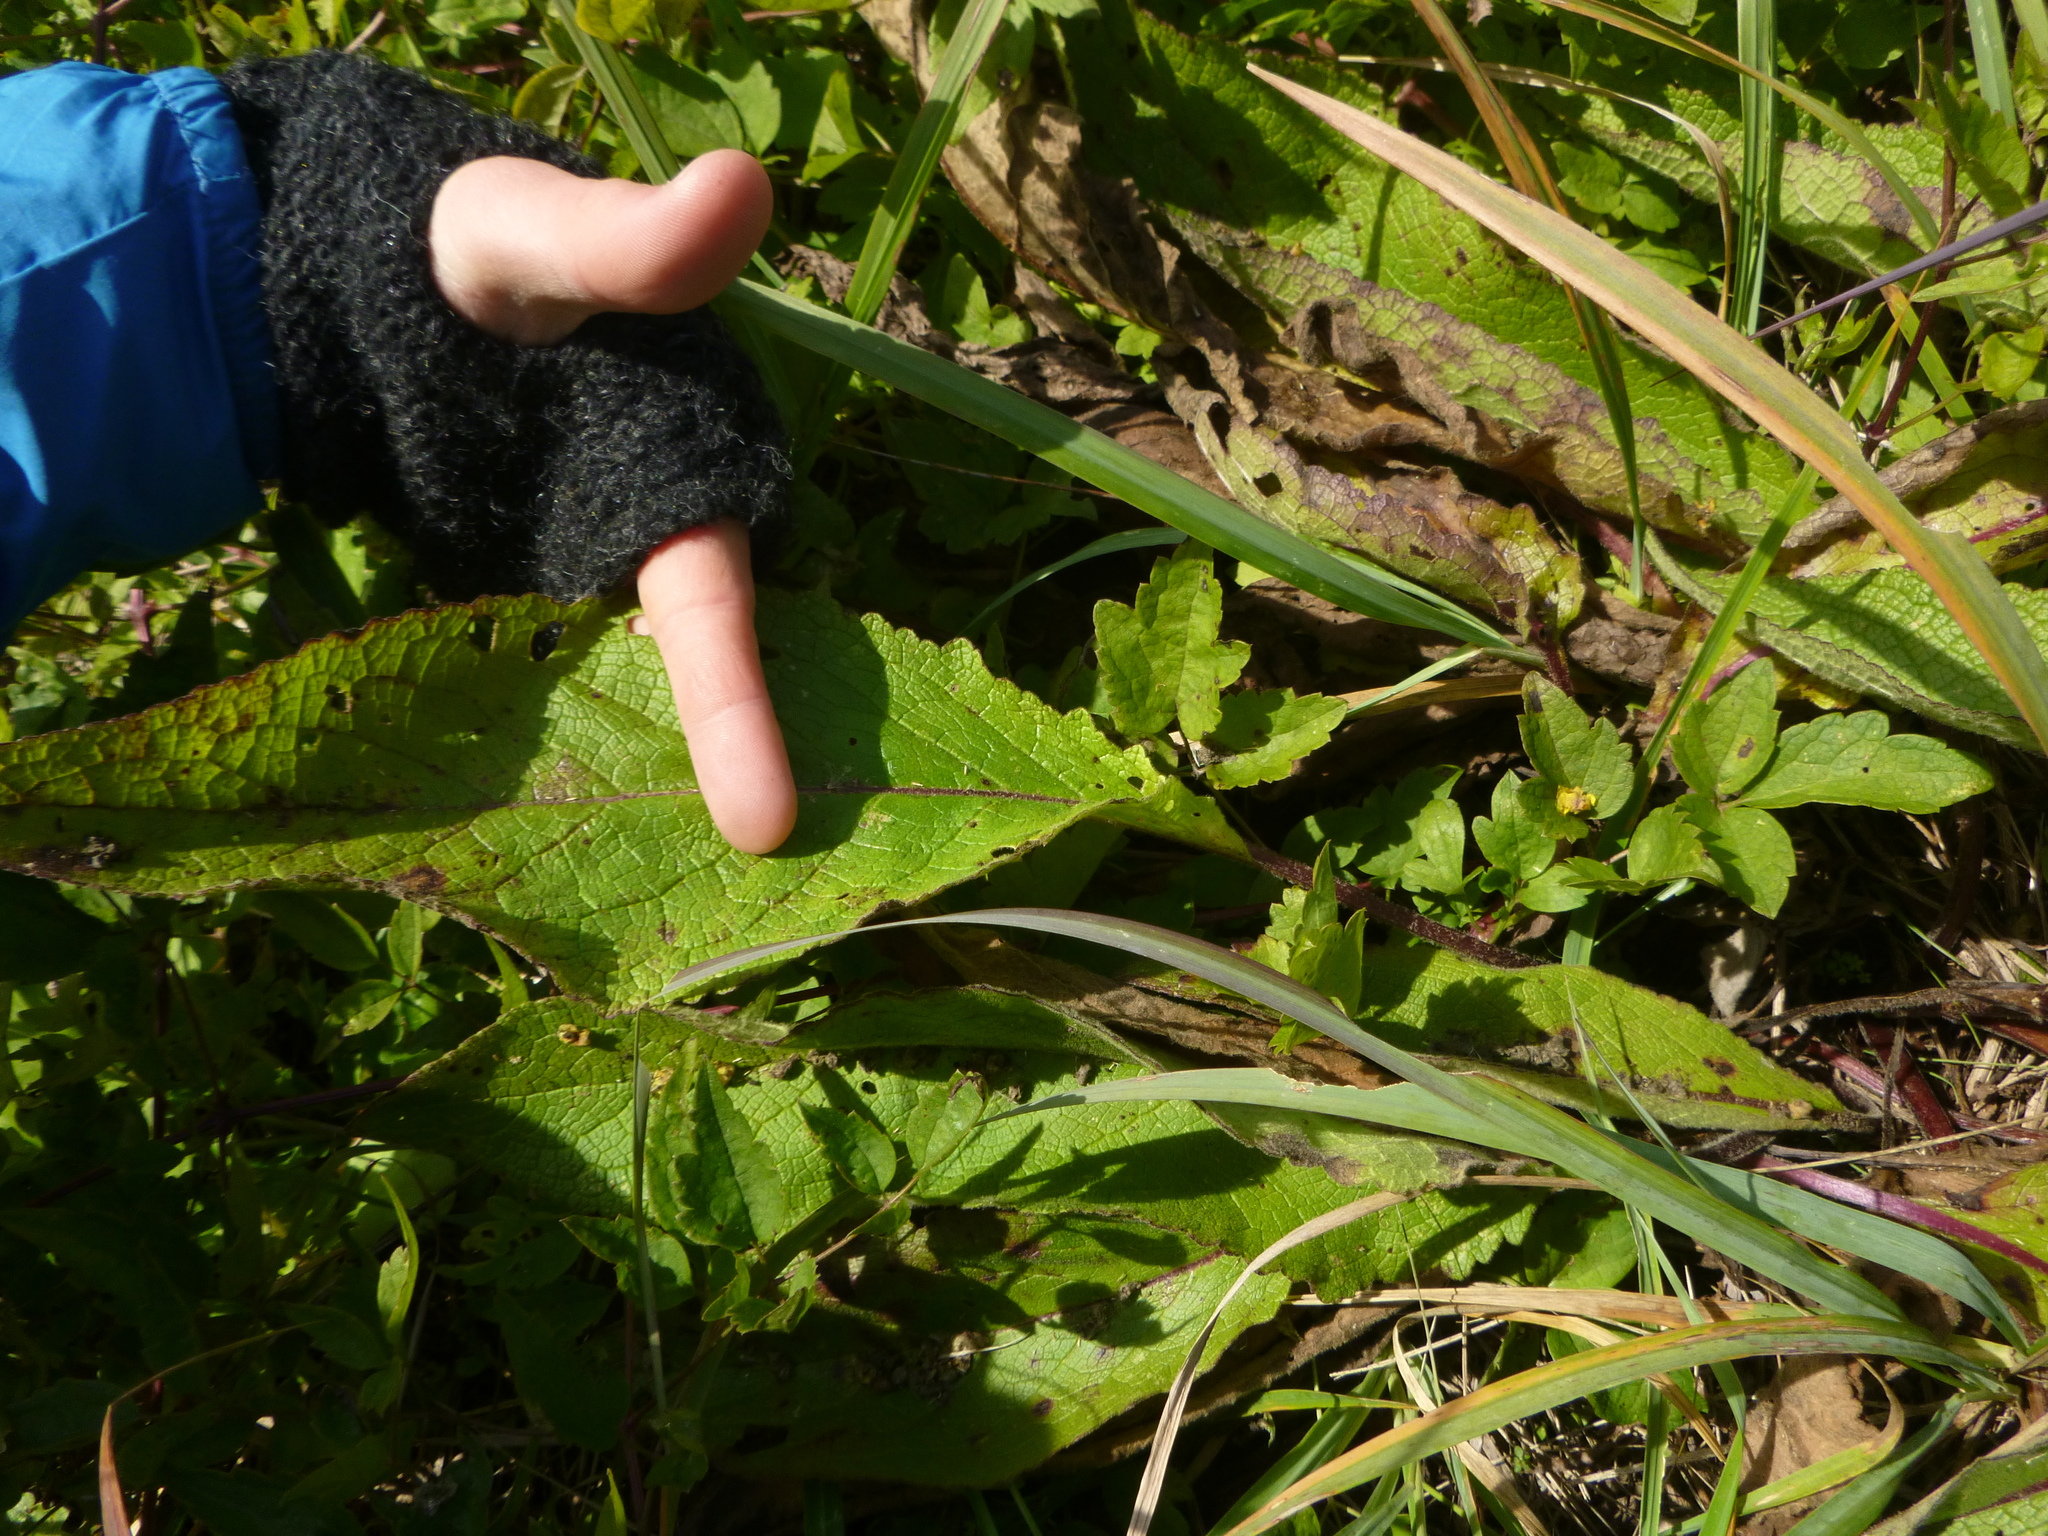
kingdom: Plantae
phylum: Tracheophyta
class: Magnoliopsida
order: Lamiales
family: Scrophulariaceae
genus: Verbascum
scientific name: Verbascum nigrum
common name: Dark mullein
